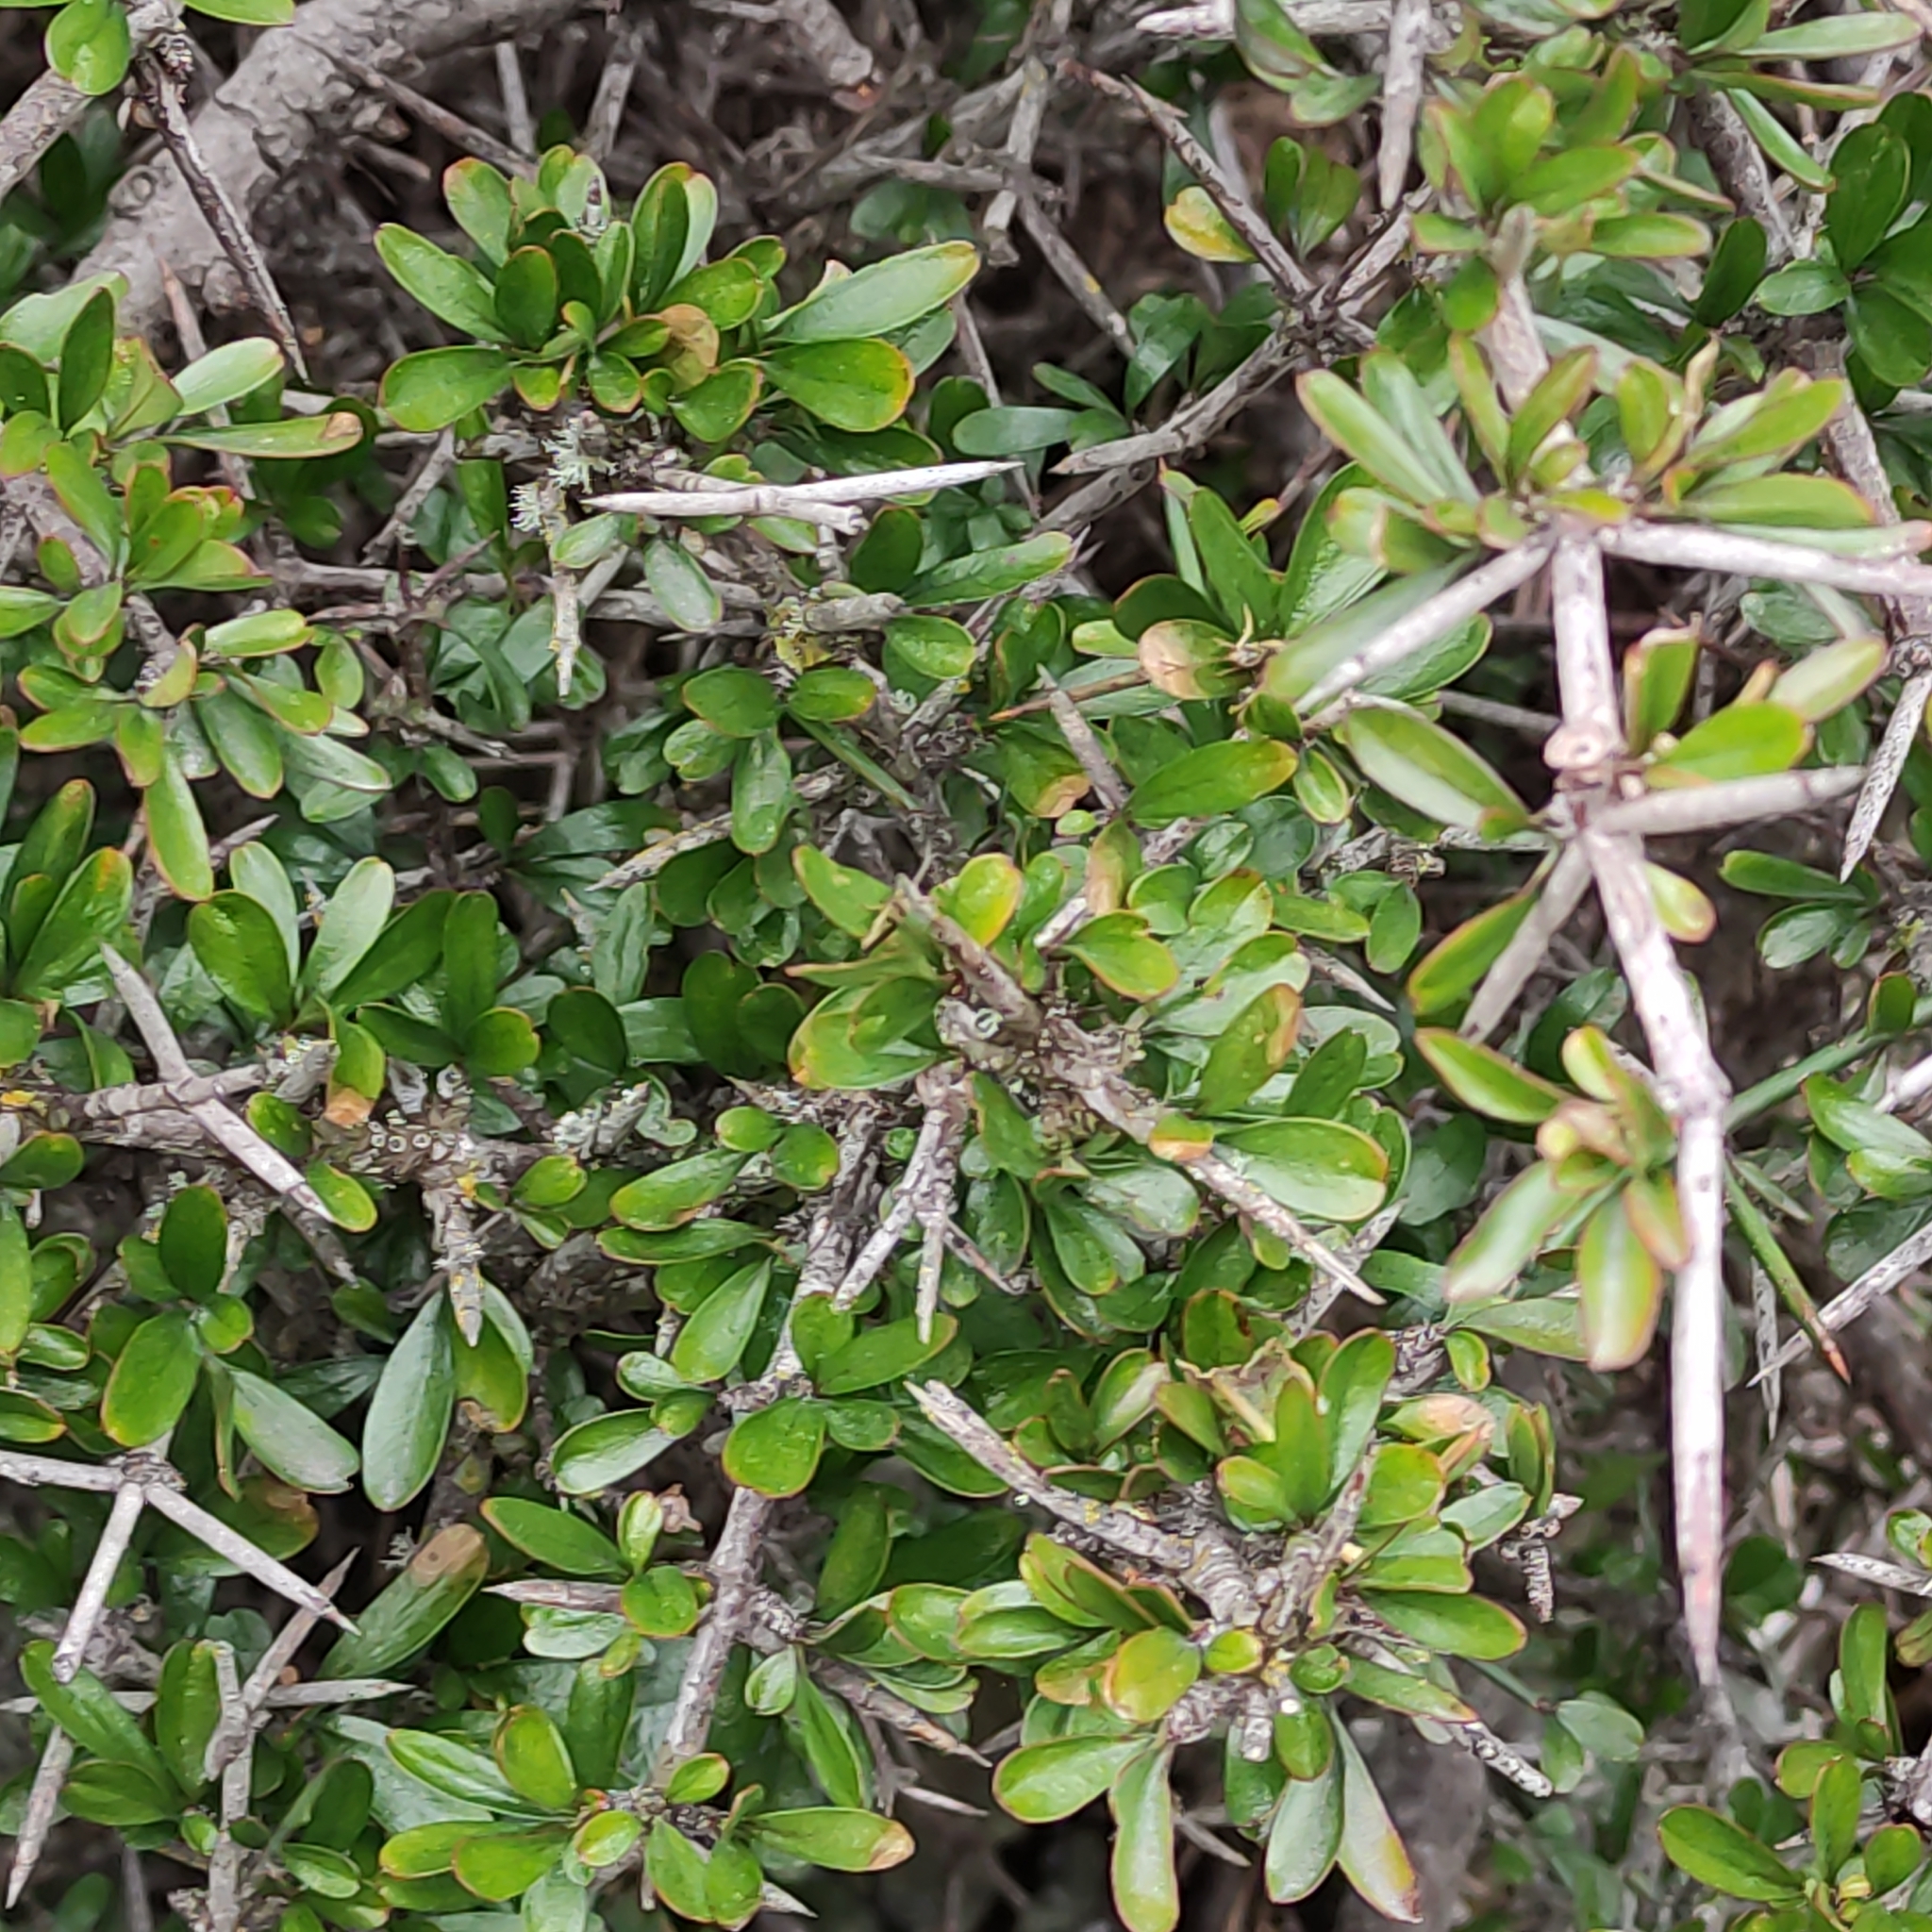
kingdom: Plantae
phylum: Tracheophyta
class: Magnoliopsida
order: Rosales
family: Rhamnaceae
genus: Discaria
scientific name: Discaria toumatou
